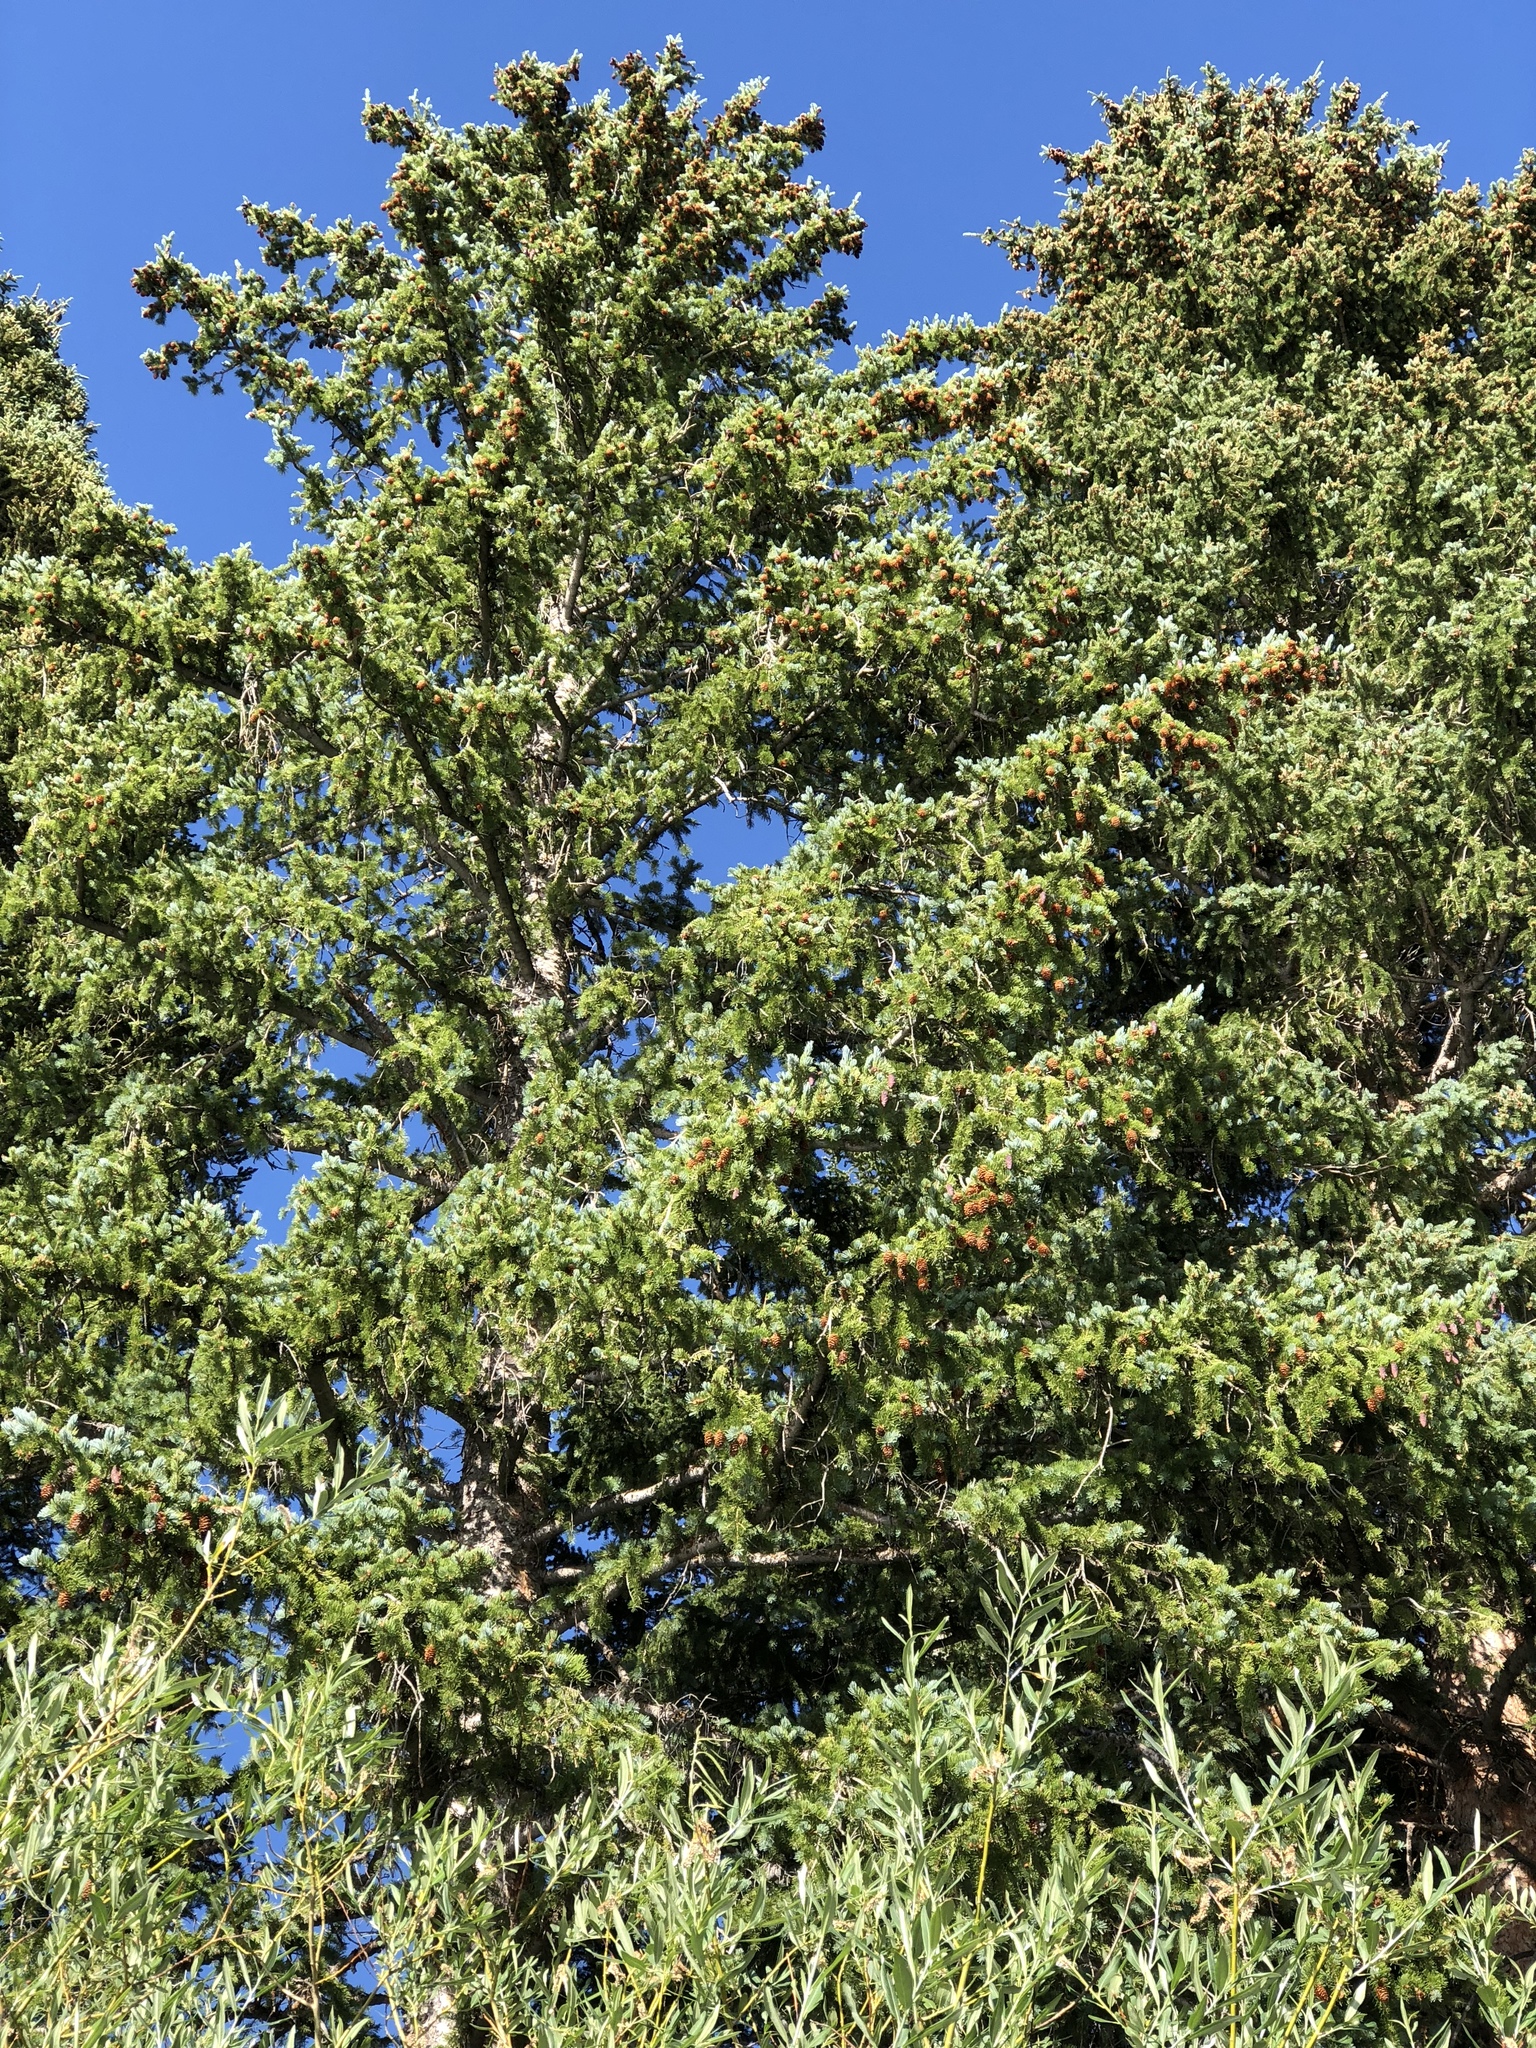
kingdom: Plantae
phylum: Tracheophyta
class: Pinopsida
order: Pinales
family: Pinaceae
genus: Picea
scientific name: Picea engelmannii
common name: Engelmann spruce
